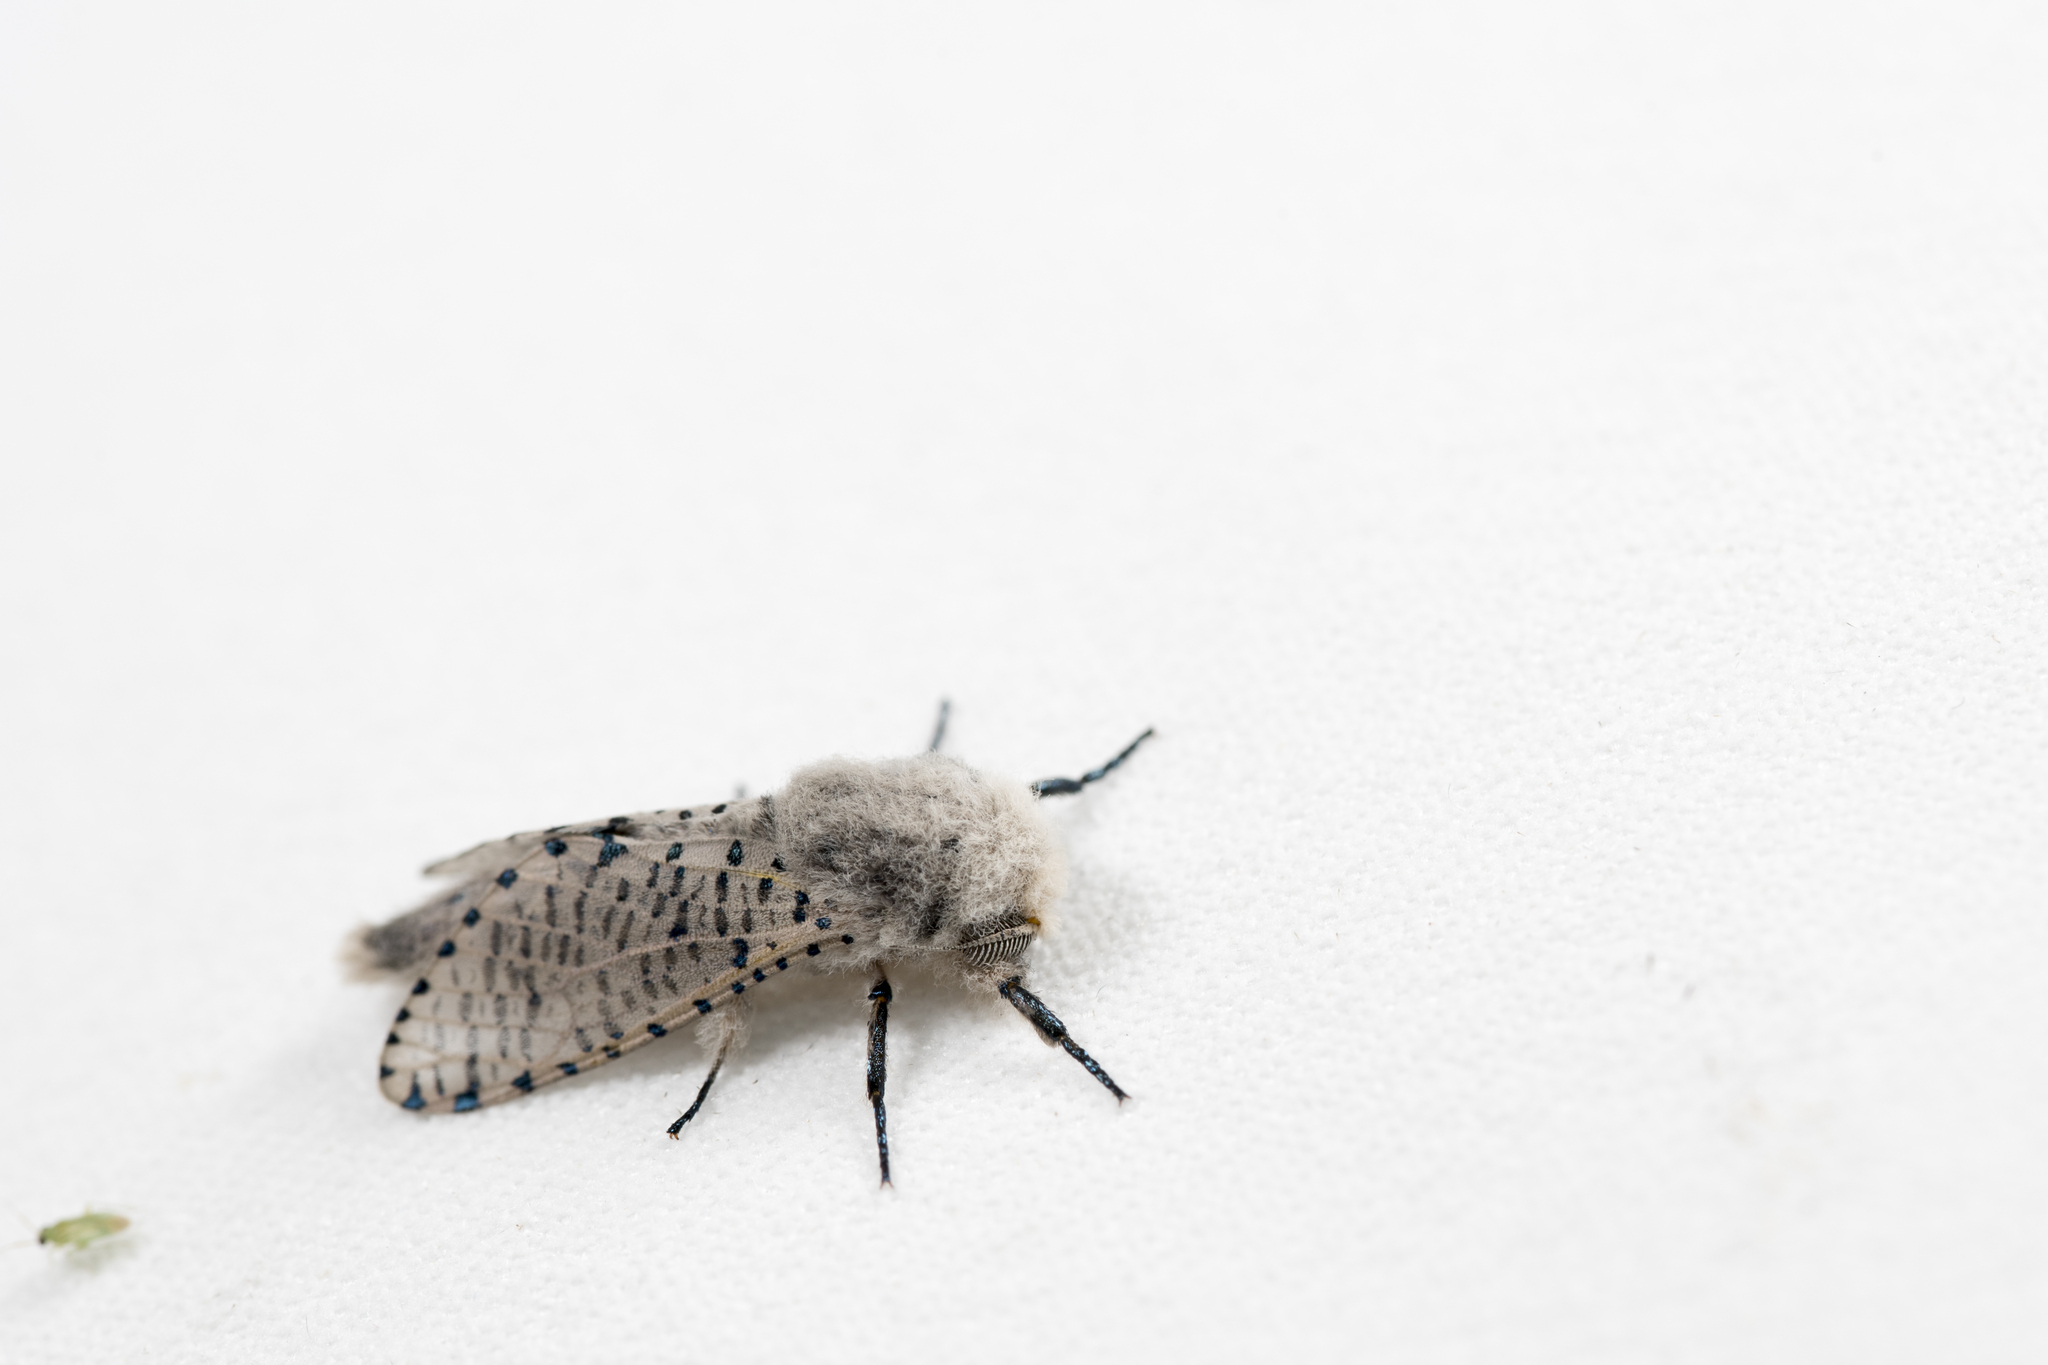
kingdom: Animalia
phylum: Arthropoda
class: Insecta
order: Lepidoptera
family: Cossidae
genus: Polyphagozerra
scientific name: Polyphagozerra coffeae
